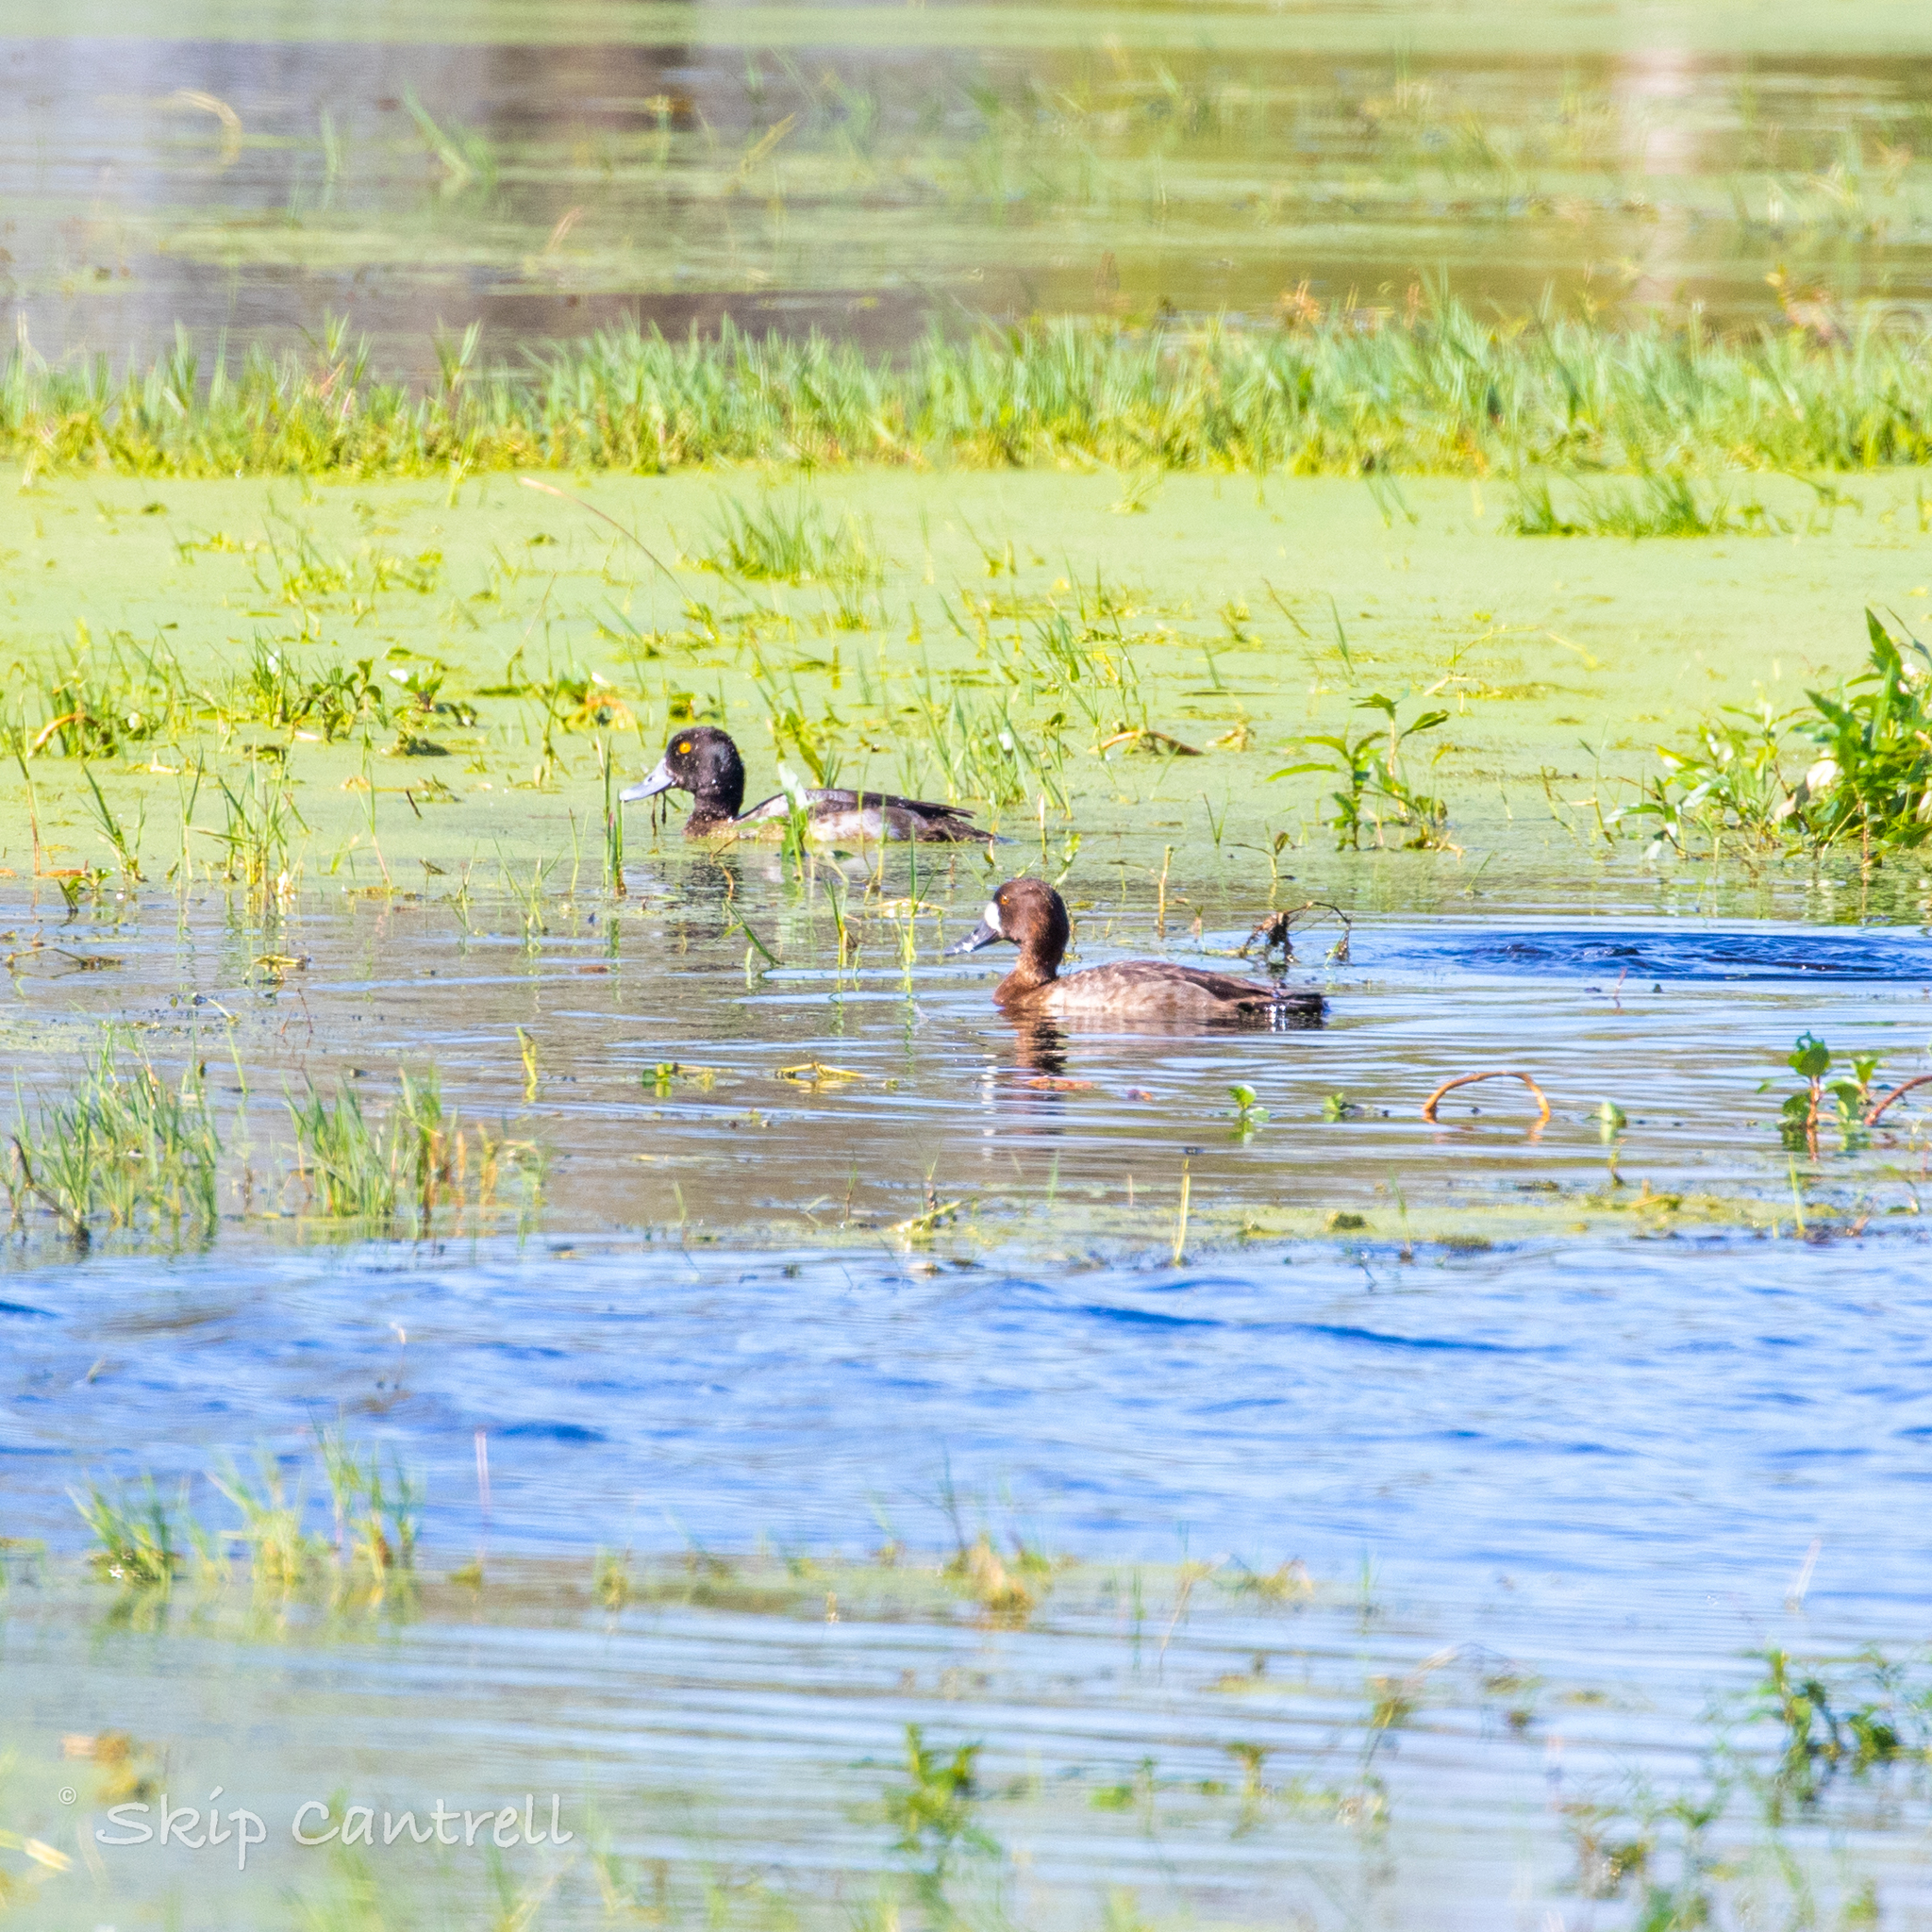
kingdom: Animalia
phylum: Chordata
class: Aves
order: Anseriformes
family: Anatidae
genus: Aythya
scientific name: Aythya affinis
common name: Lesser scaup
